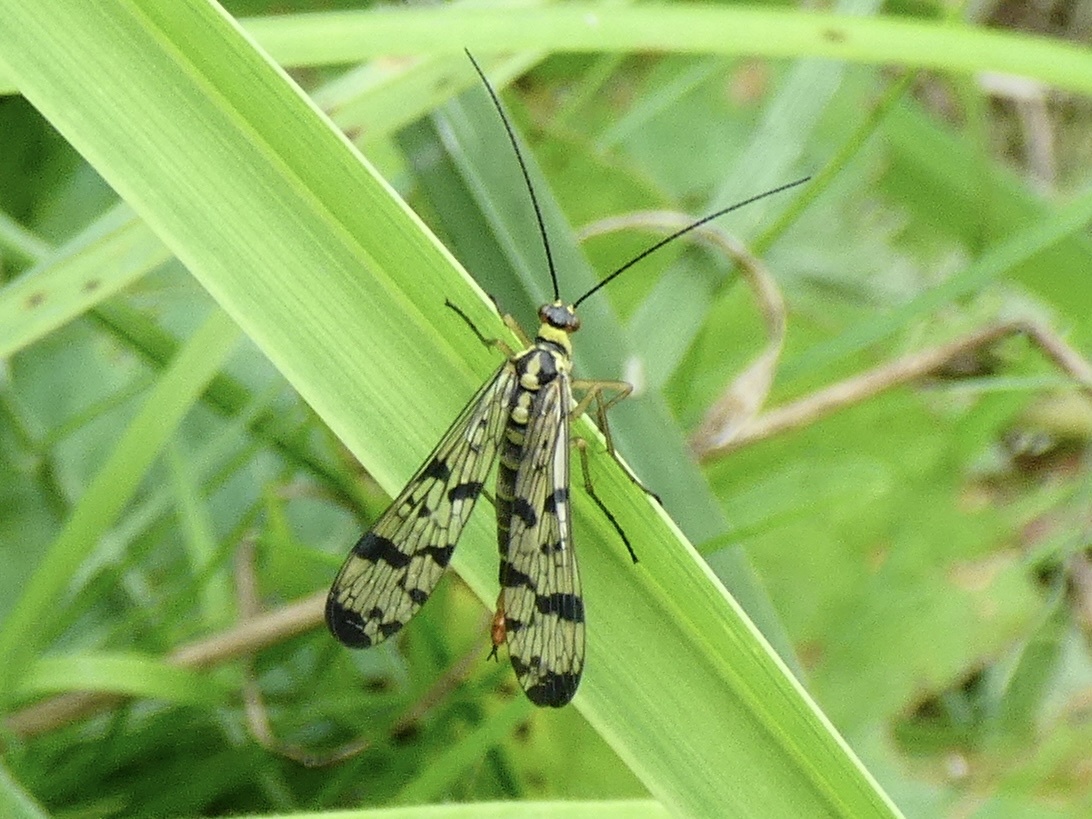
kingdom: Animalia
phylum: Arthropoda
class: Insecta
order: Mecoptera
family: Panorpidae
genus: Panorpa
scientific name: Panorpa communis
